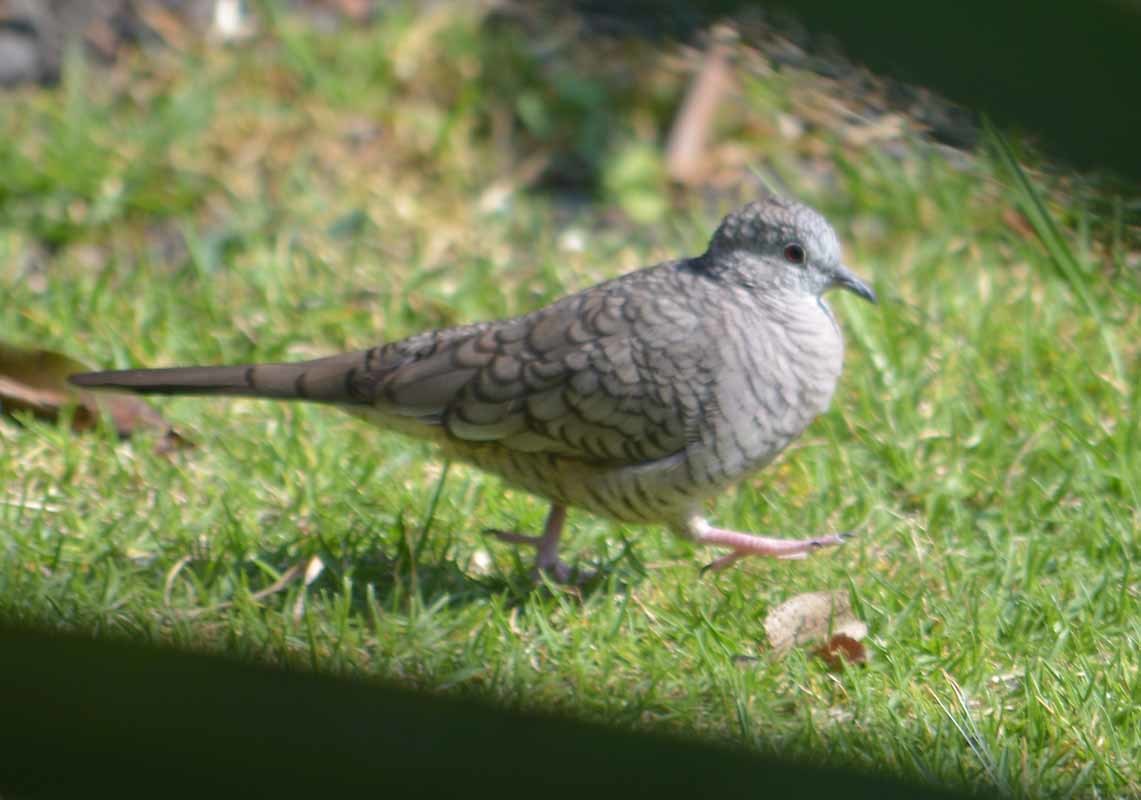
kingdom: Animalia
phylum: Chordata
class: Aves
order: Columbiformes
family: Columbidae
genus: Columbina
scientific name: Columbina inca
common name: Inca dove
